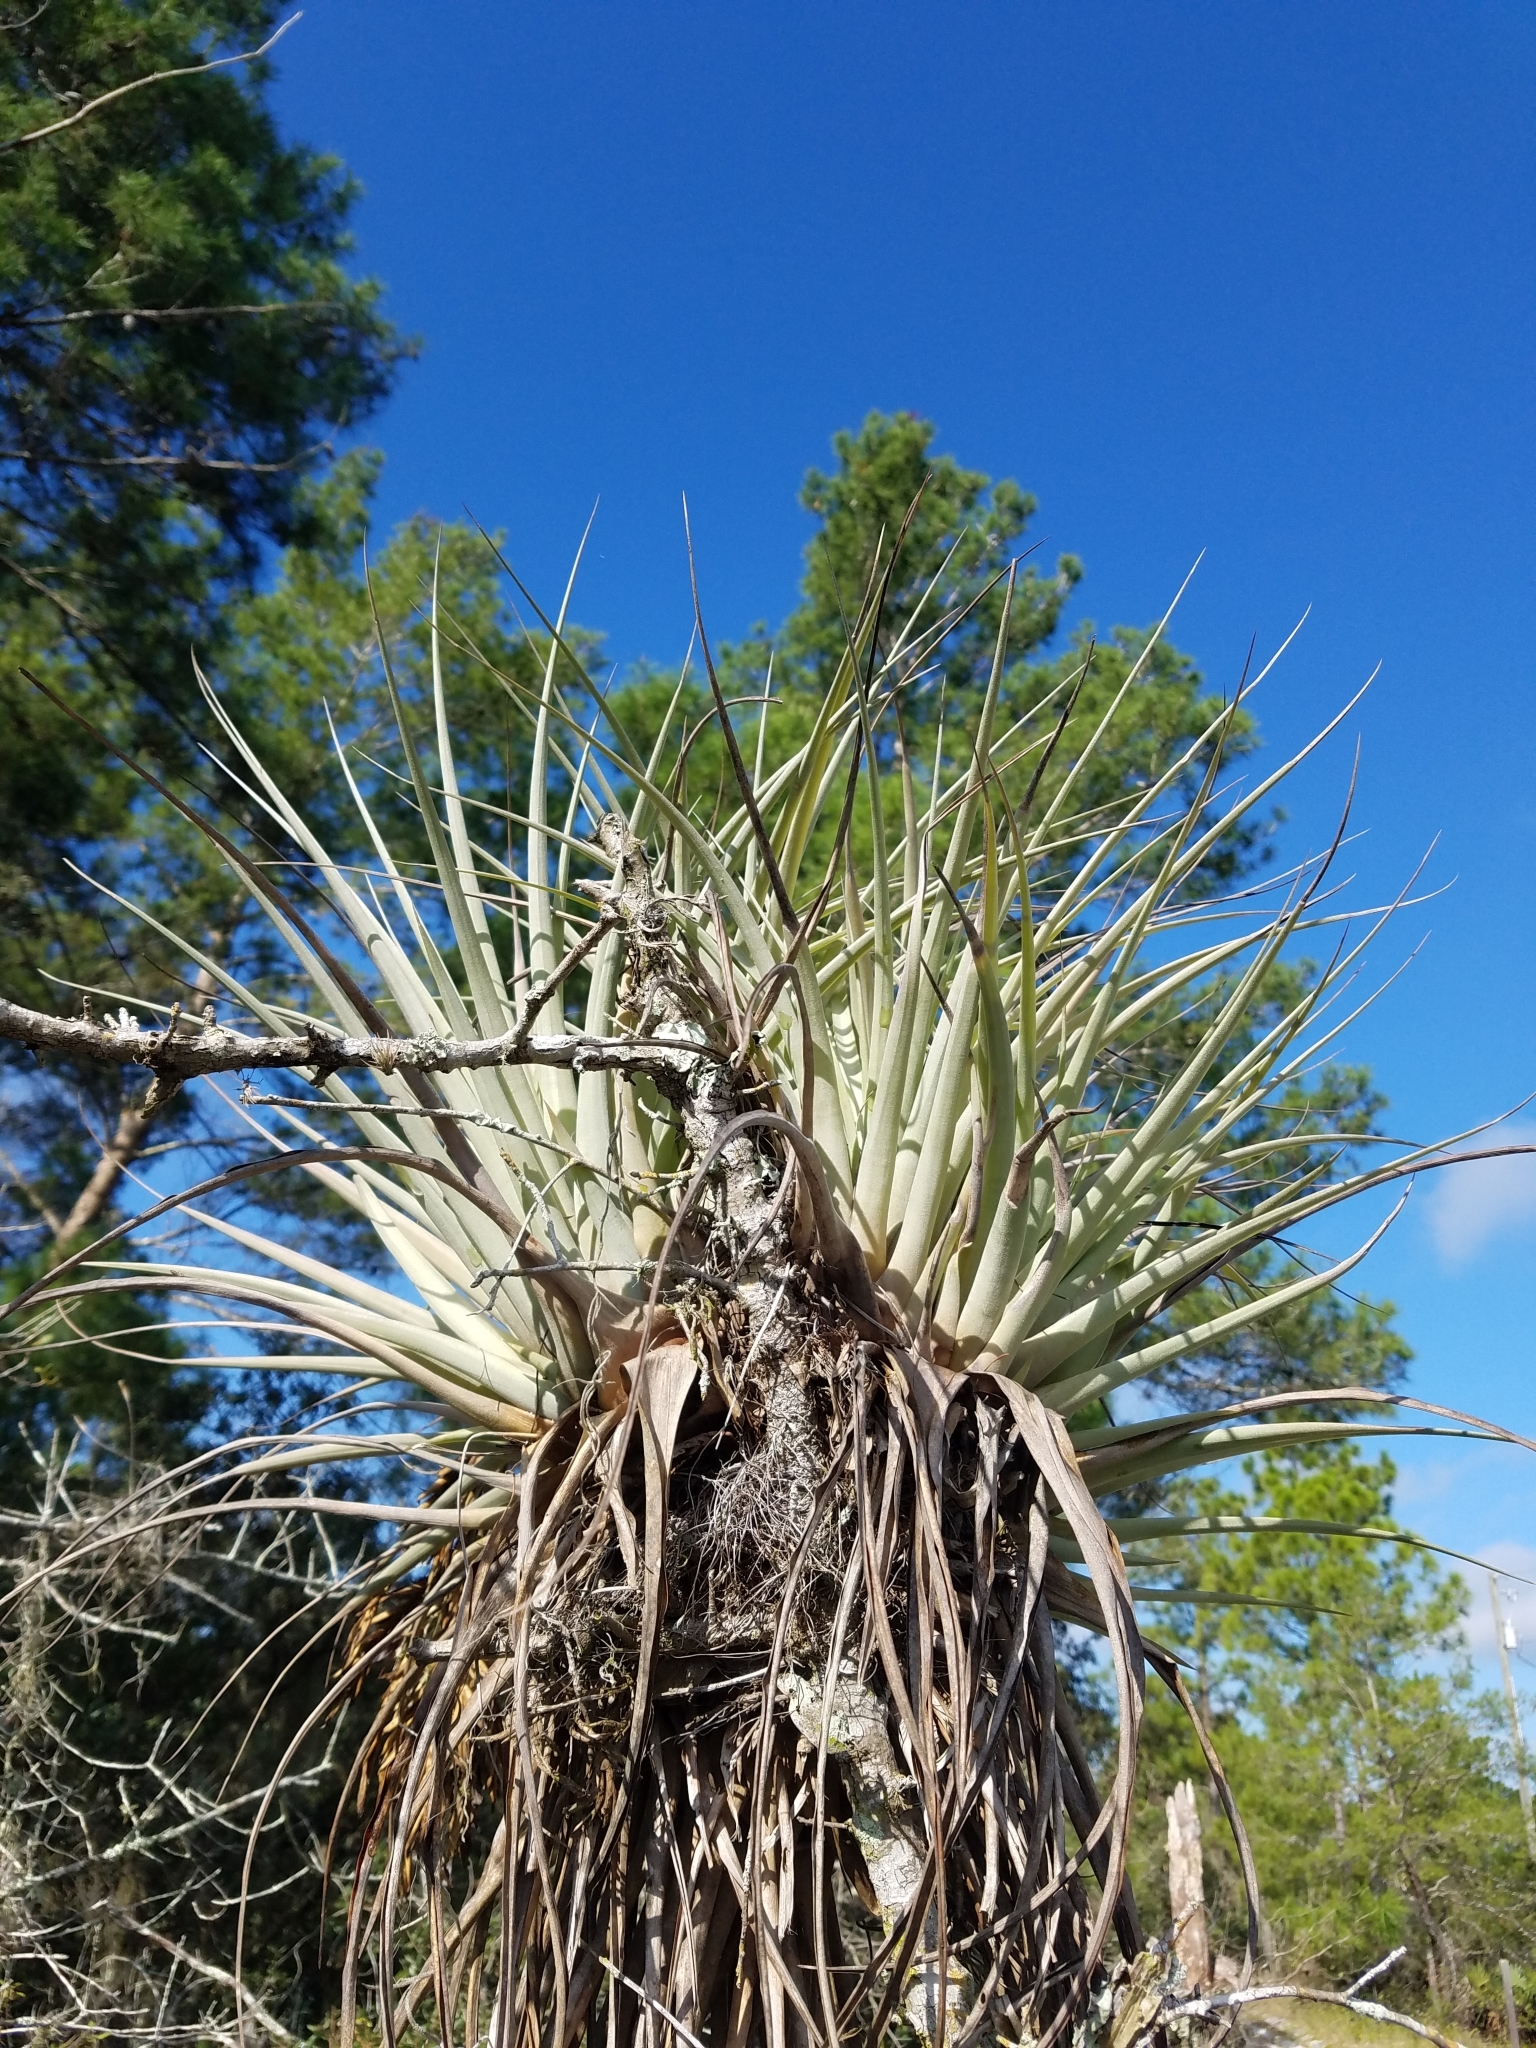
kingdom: Plantae
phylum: Tracheophyta
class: Liliopsida
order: Poales
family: Bromeliaceae
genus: Tillandsia
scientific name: Tillandsia fasciculata
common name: Giant airplant
